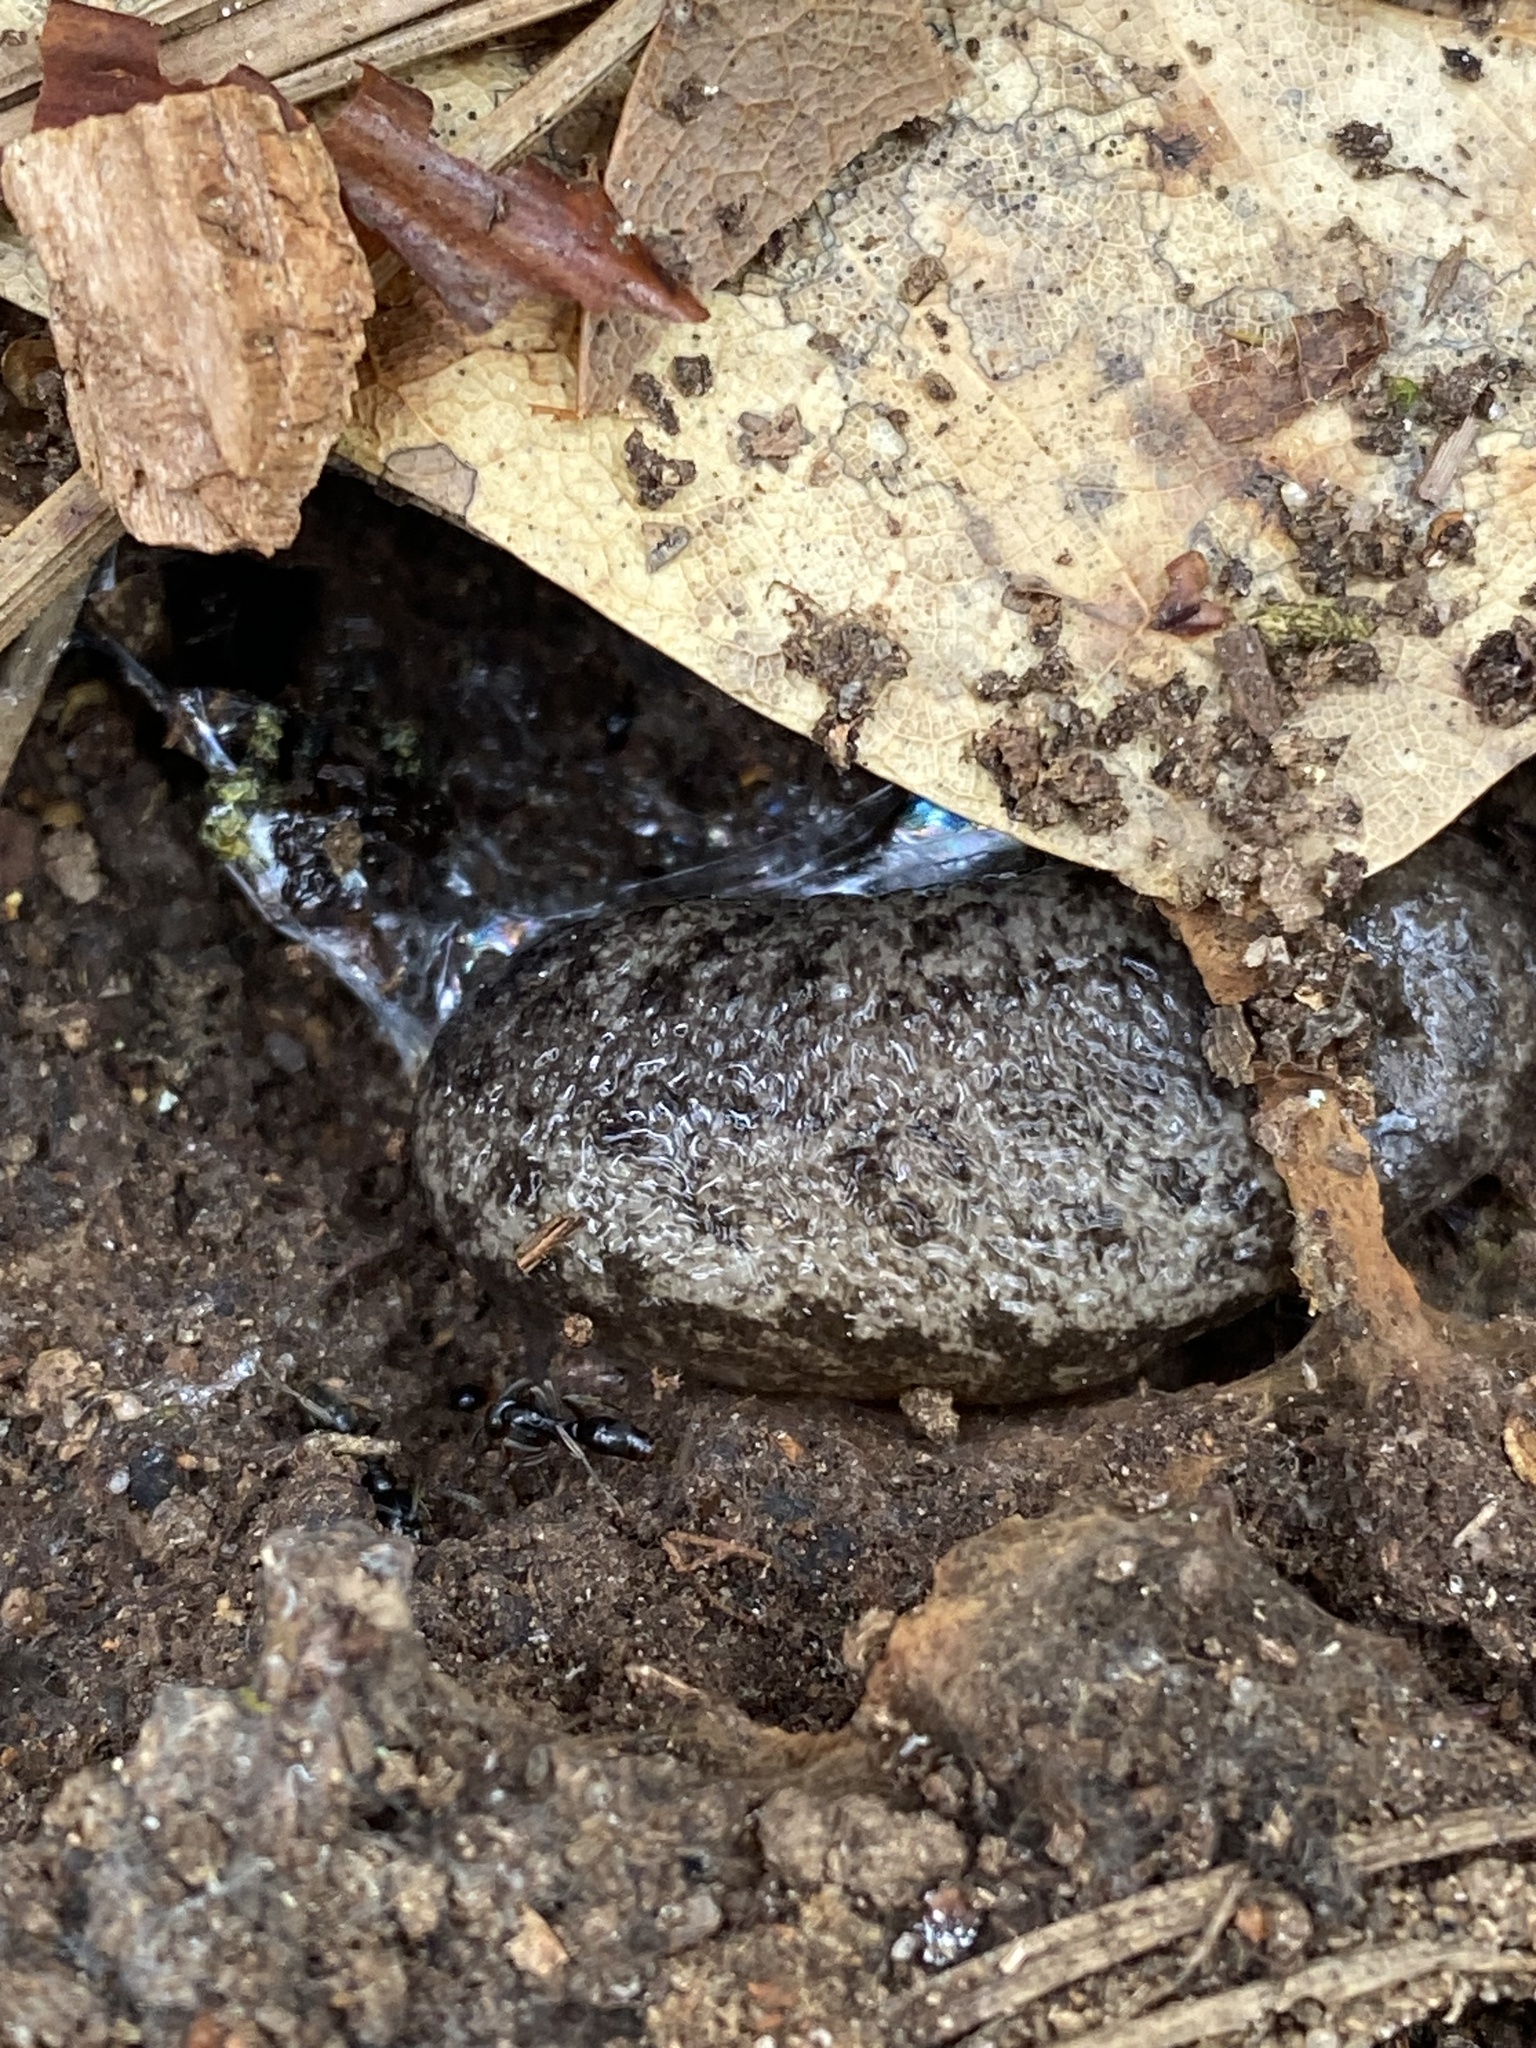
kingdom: Animalia
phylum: Mollusca
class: Gastropoda
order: Stylommatophora
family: Philomycidae
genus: Megapallifera
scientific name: Megapallifera mutabilis
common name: Changeable mantleslug
